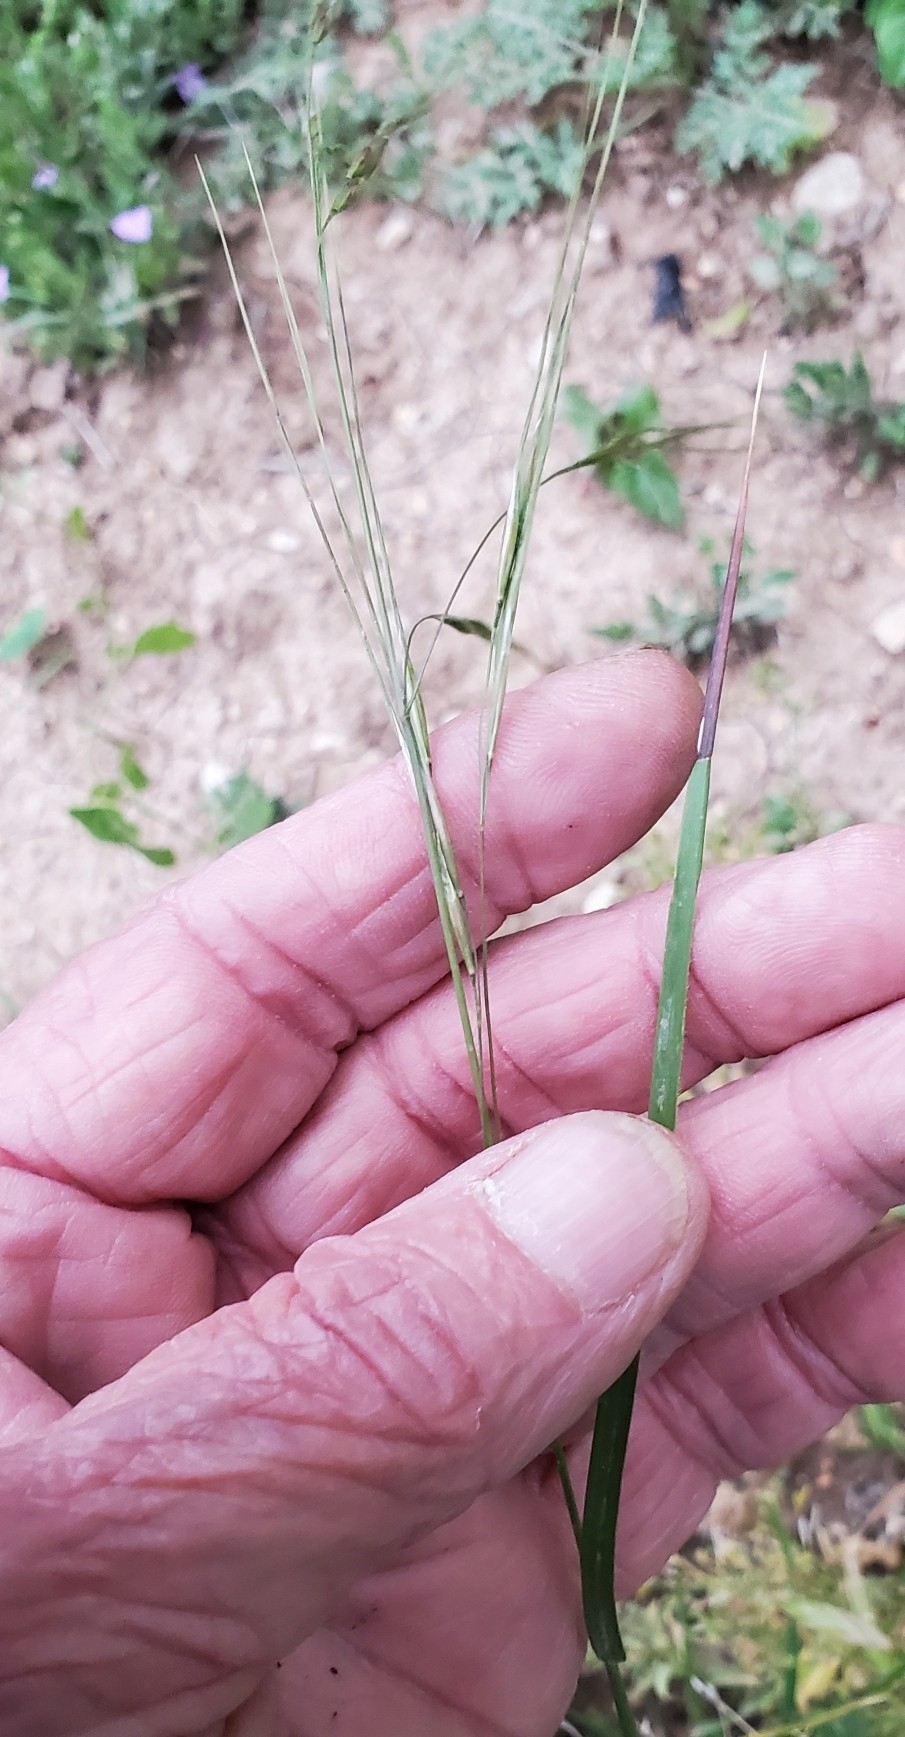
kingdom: Plantae
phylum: Tracheophyta
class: Liliopsida
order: Poales
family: Poaceae
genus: Nassella
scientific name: Nassella leucotricha
